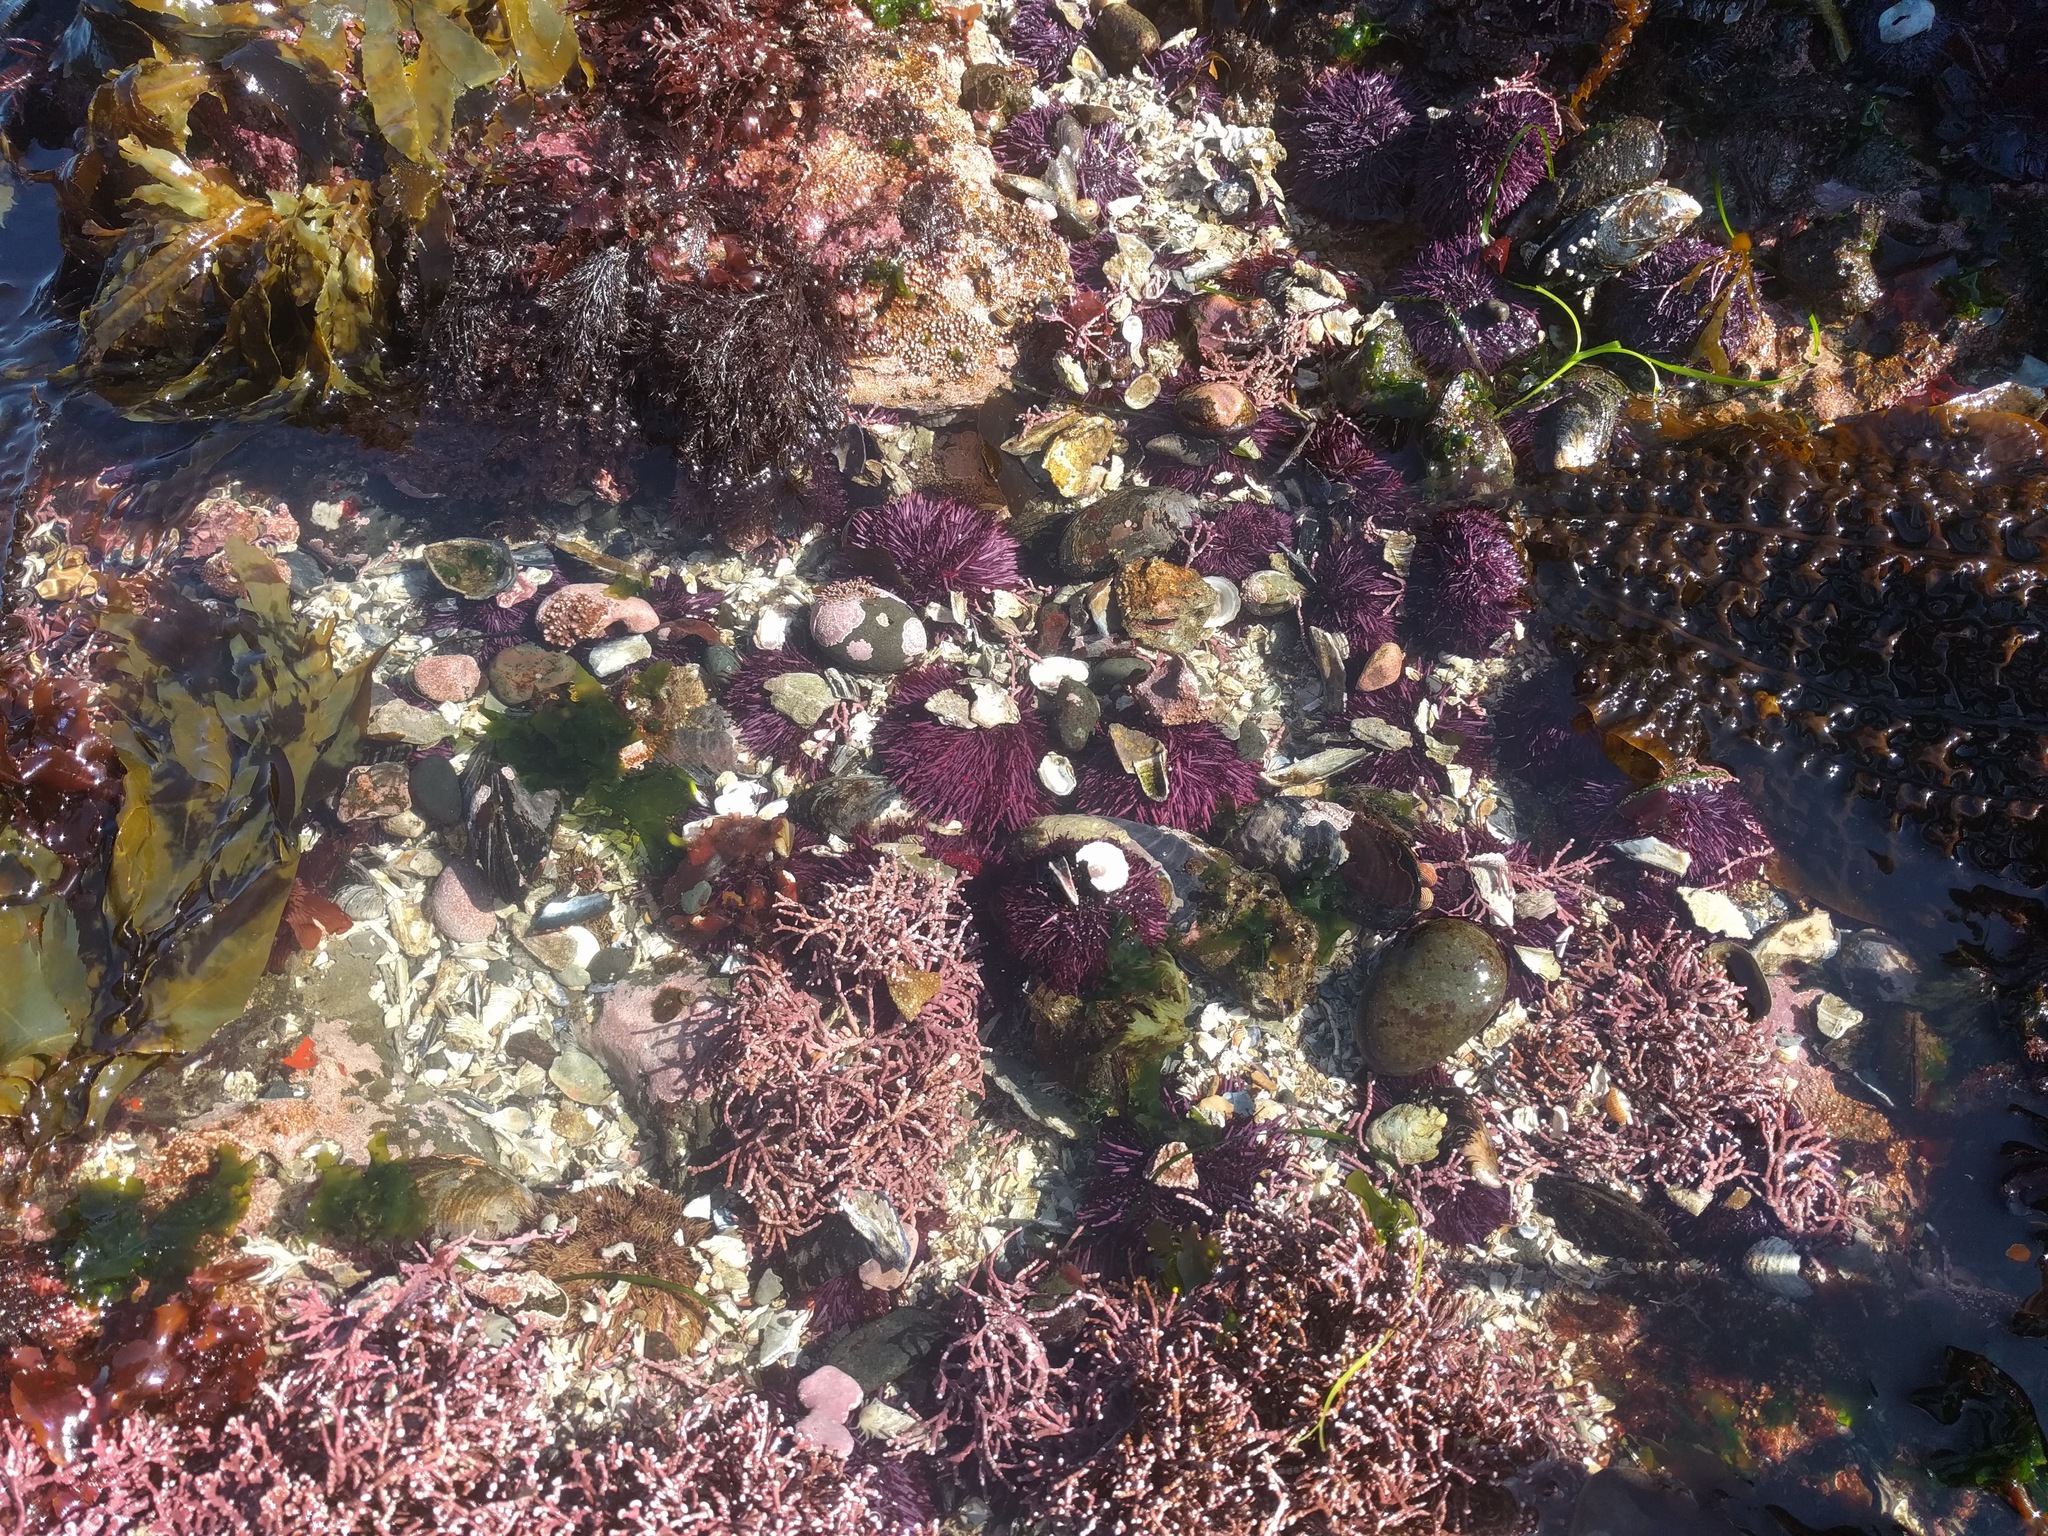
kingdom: Chromista
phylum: Ochrophyta
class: Phaeophyceae
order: Laminariales
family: Costariaceae
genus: Costaria
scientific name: Costaria costata
